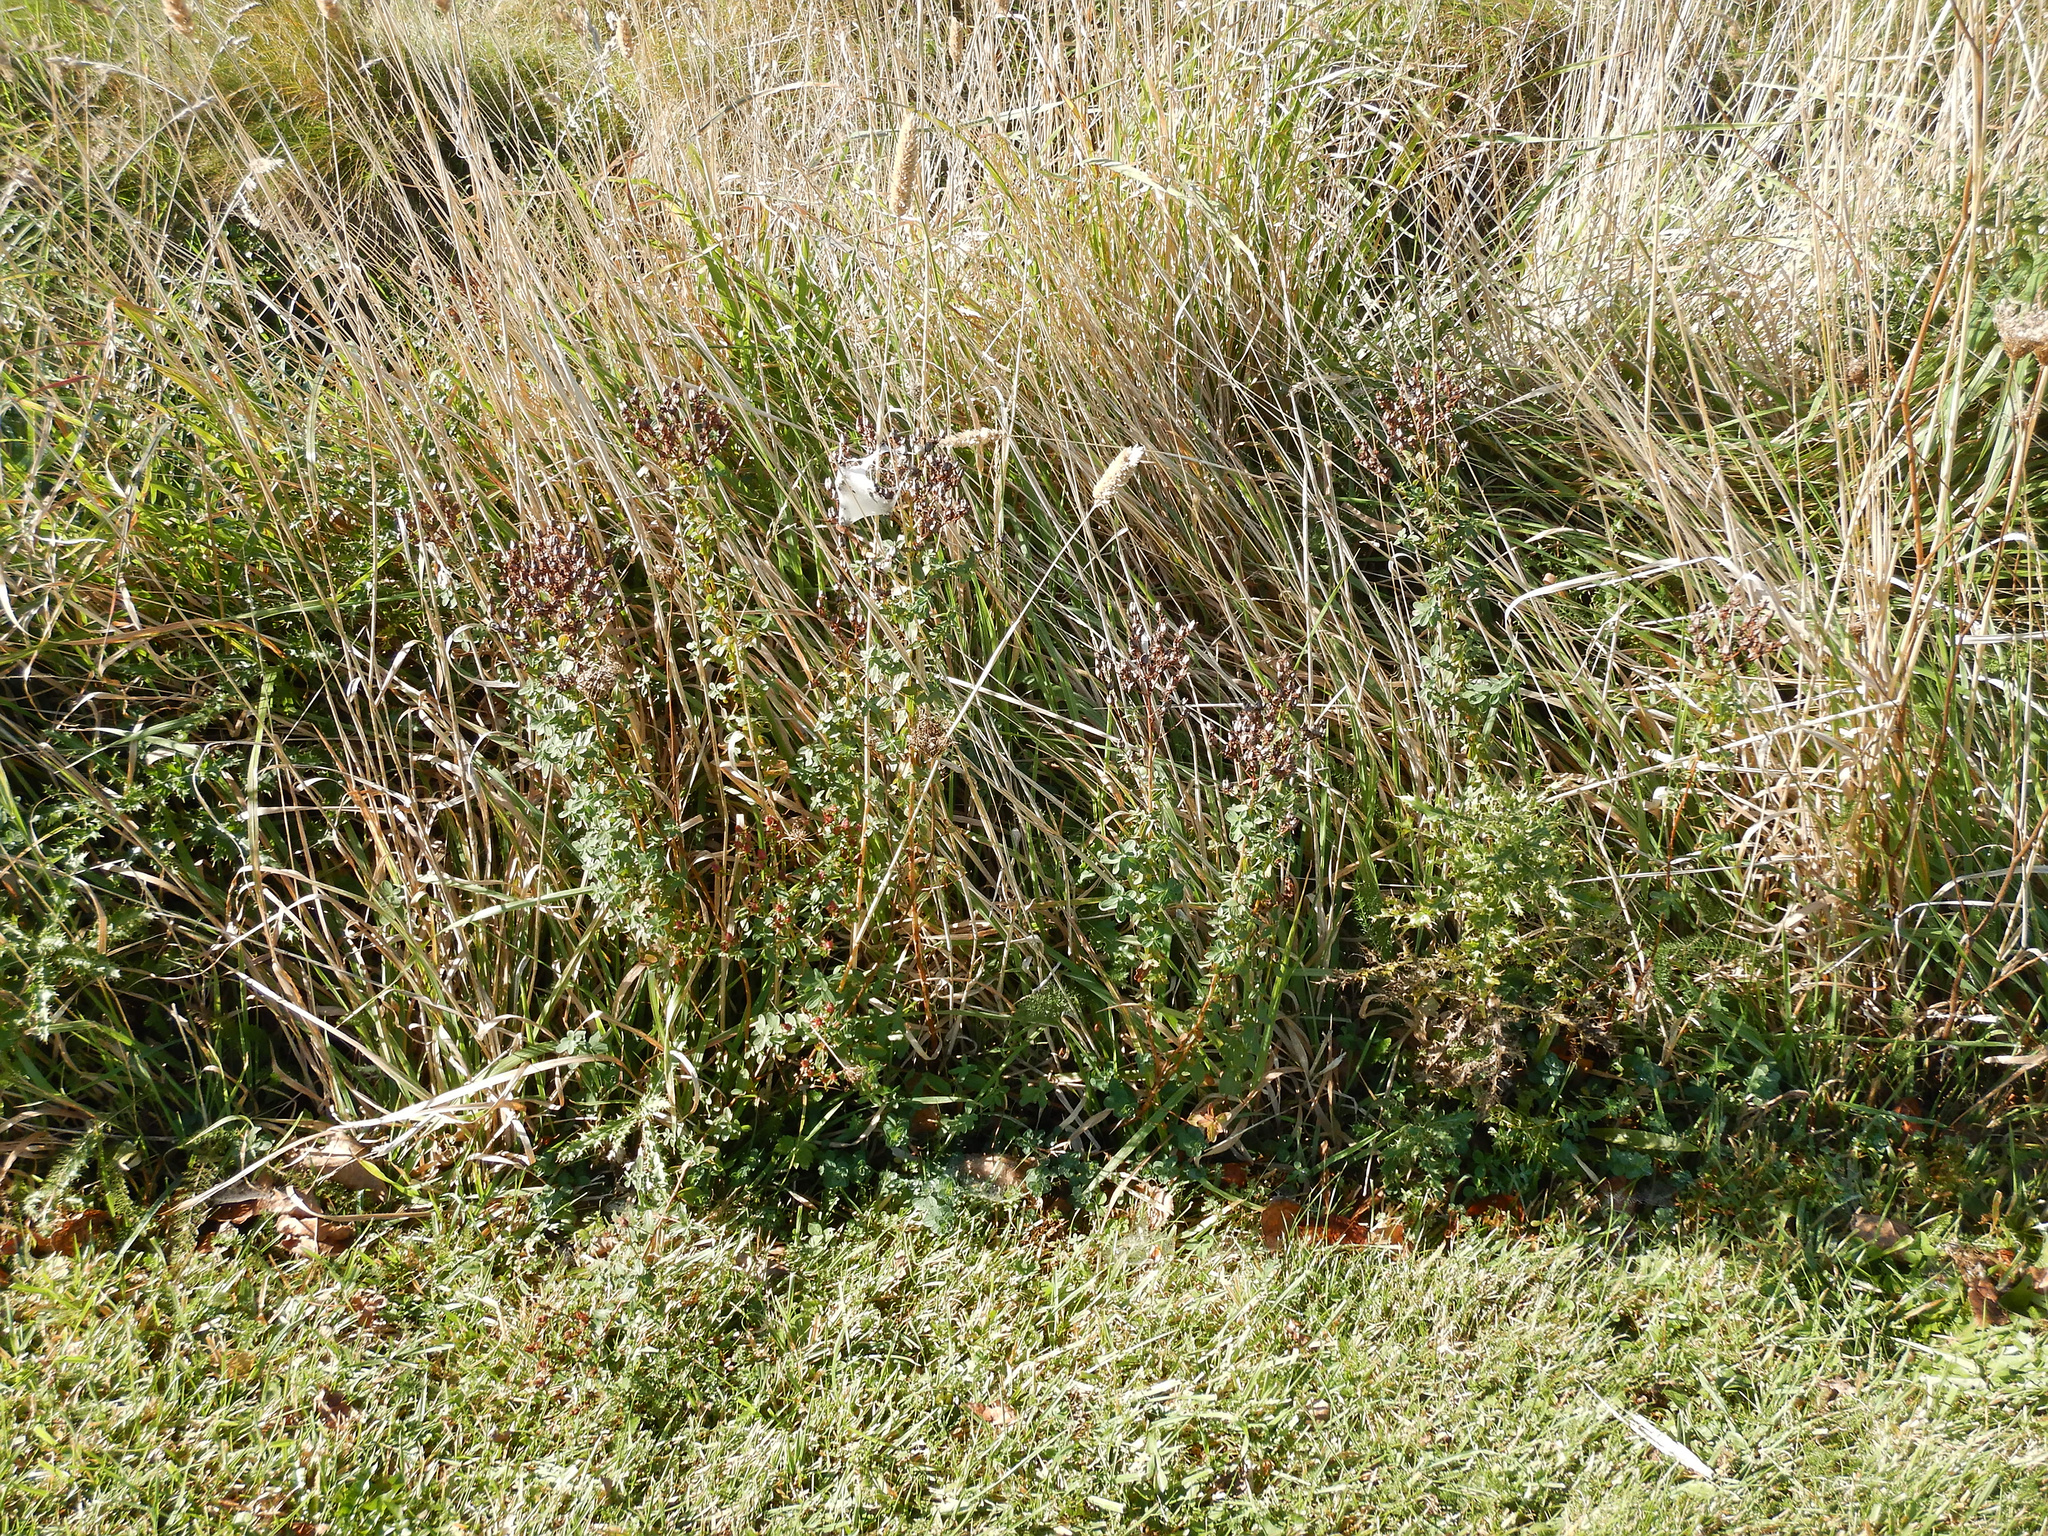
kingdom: Plantae
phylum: Tracheophyta
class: Magnoliopsida
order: Malpighiales
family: Hypericaceae
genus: Hypericum
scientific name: Hypericum perforatum
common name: Common st. johnswort
